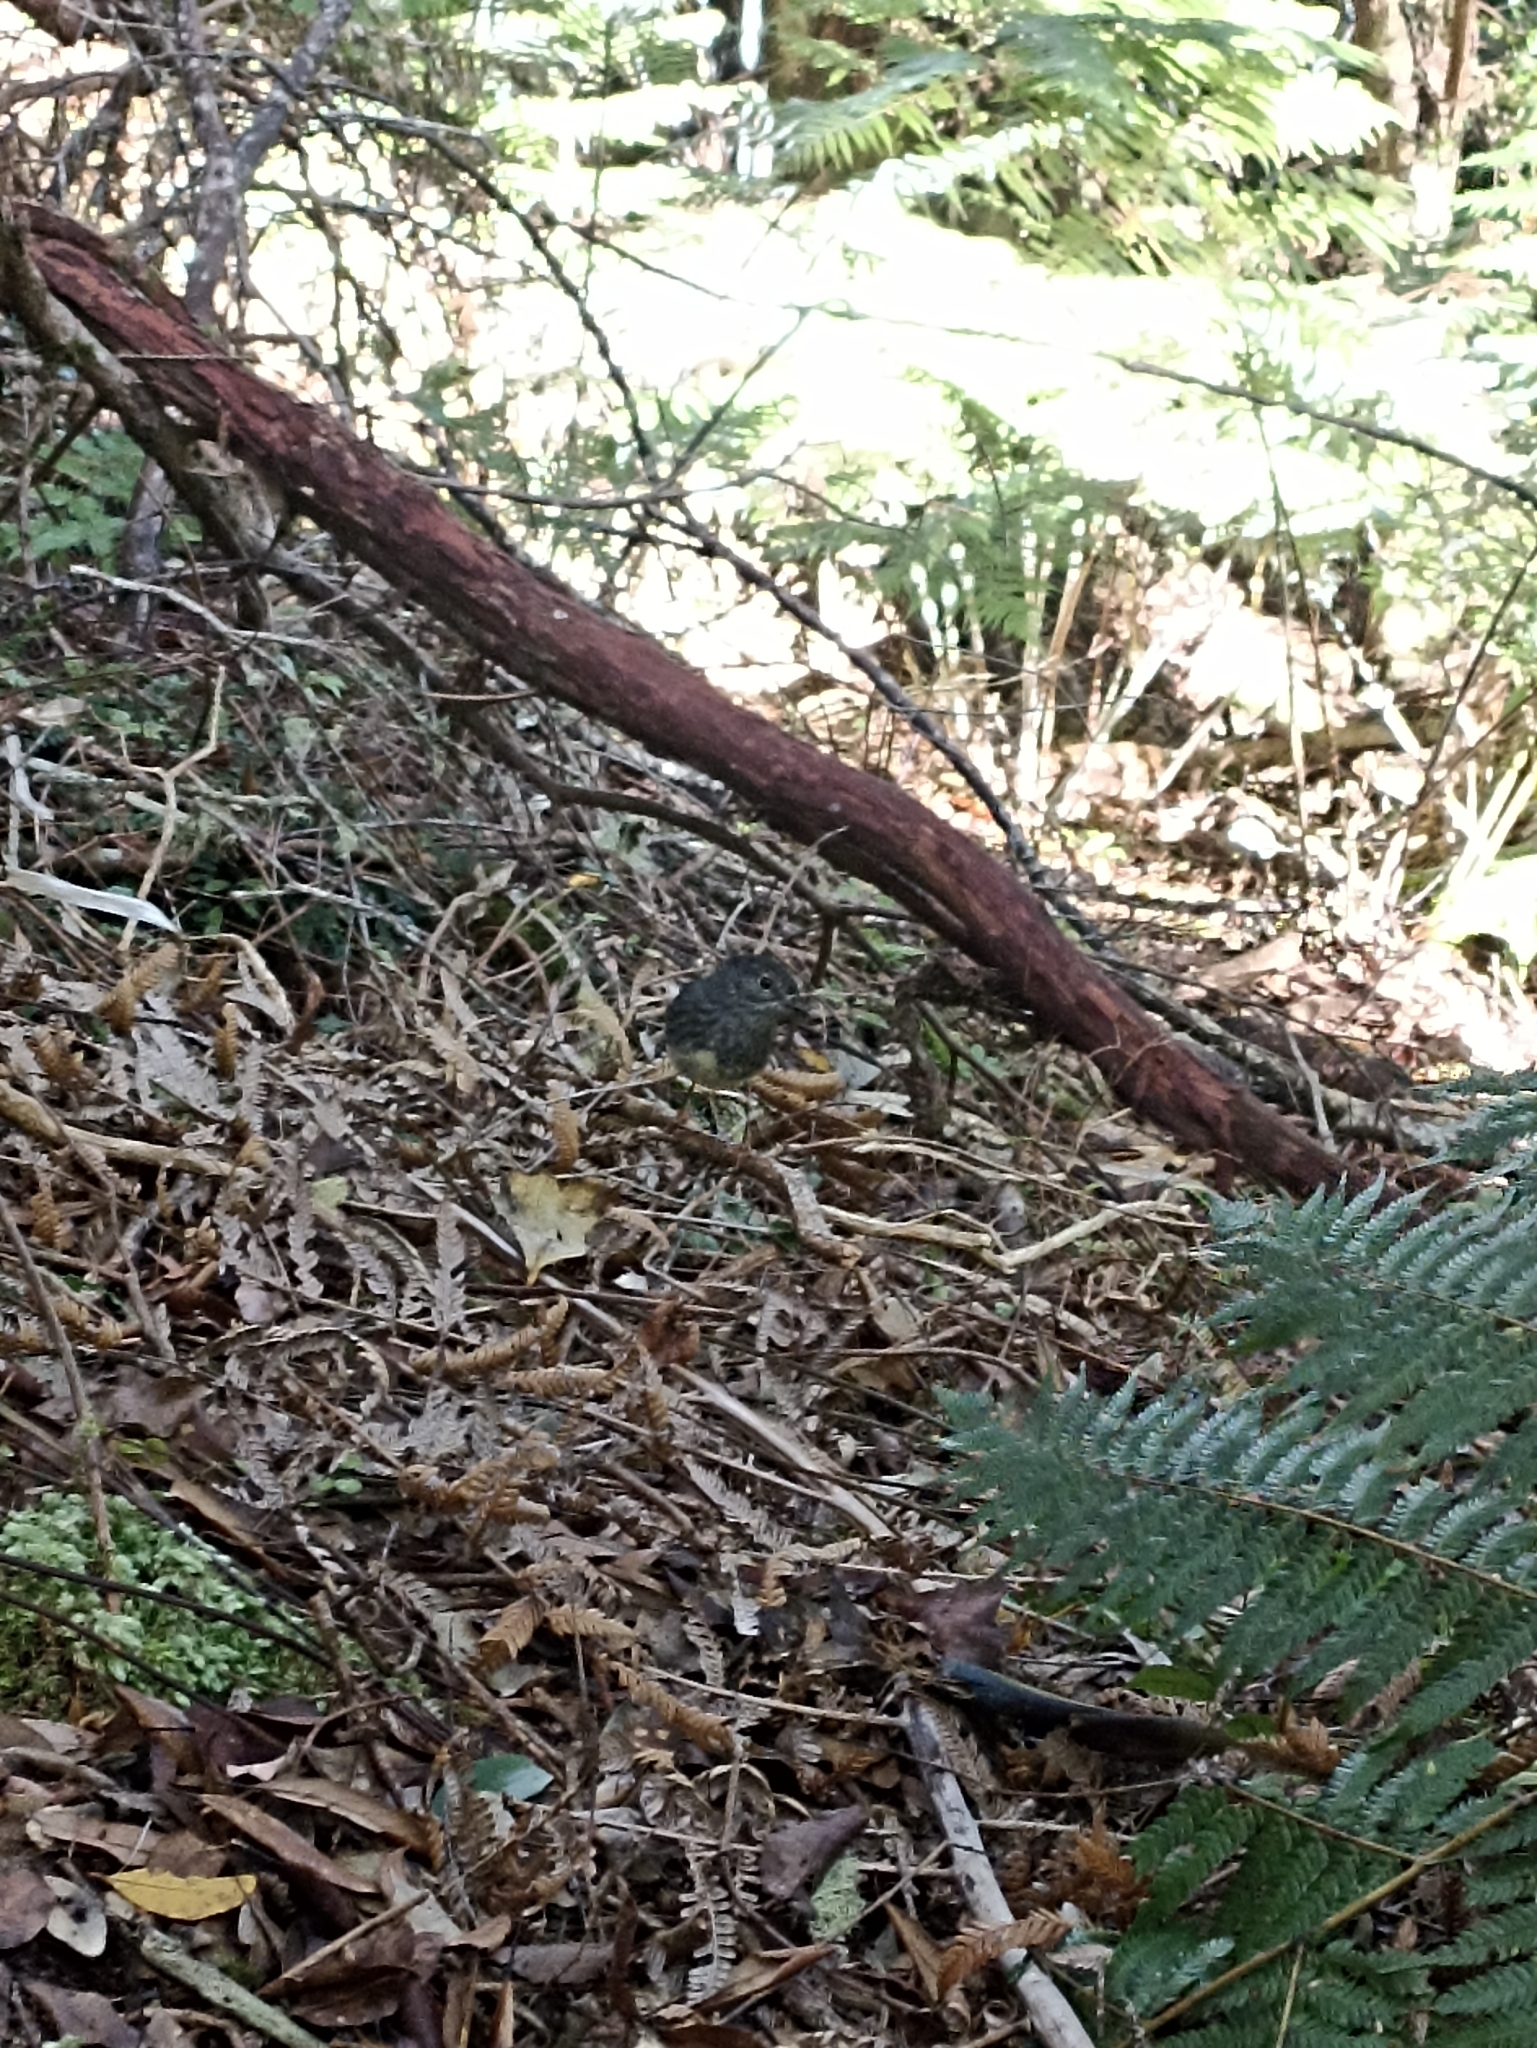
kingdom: Animalia
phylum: Chordata
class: Aves
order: Passeriformes
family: Petroicidae
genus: Petroica
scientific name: Petroica australis
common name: New zealand robin
